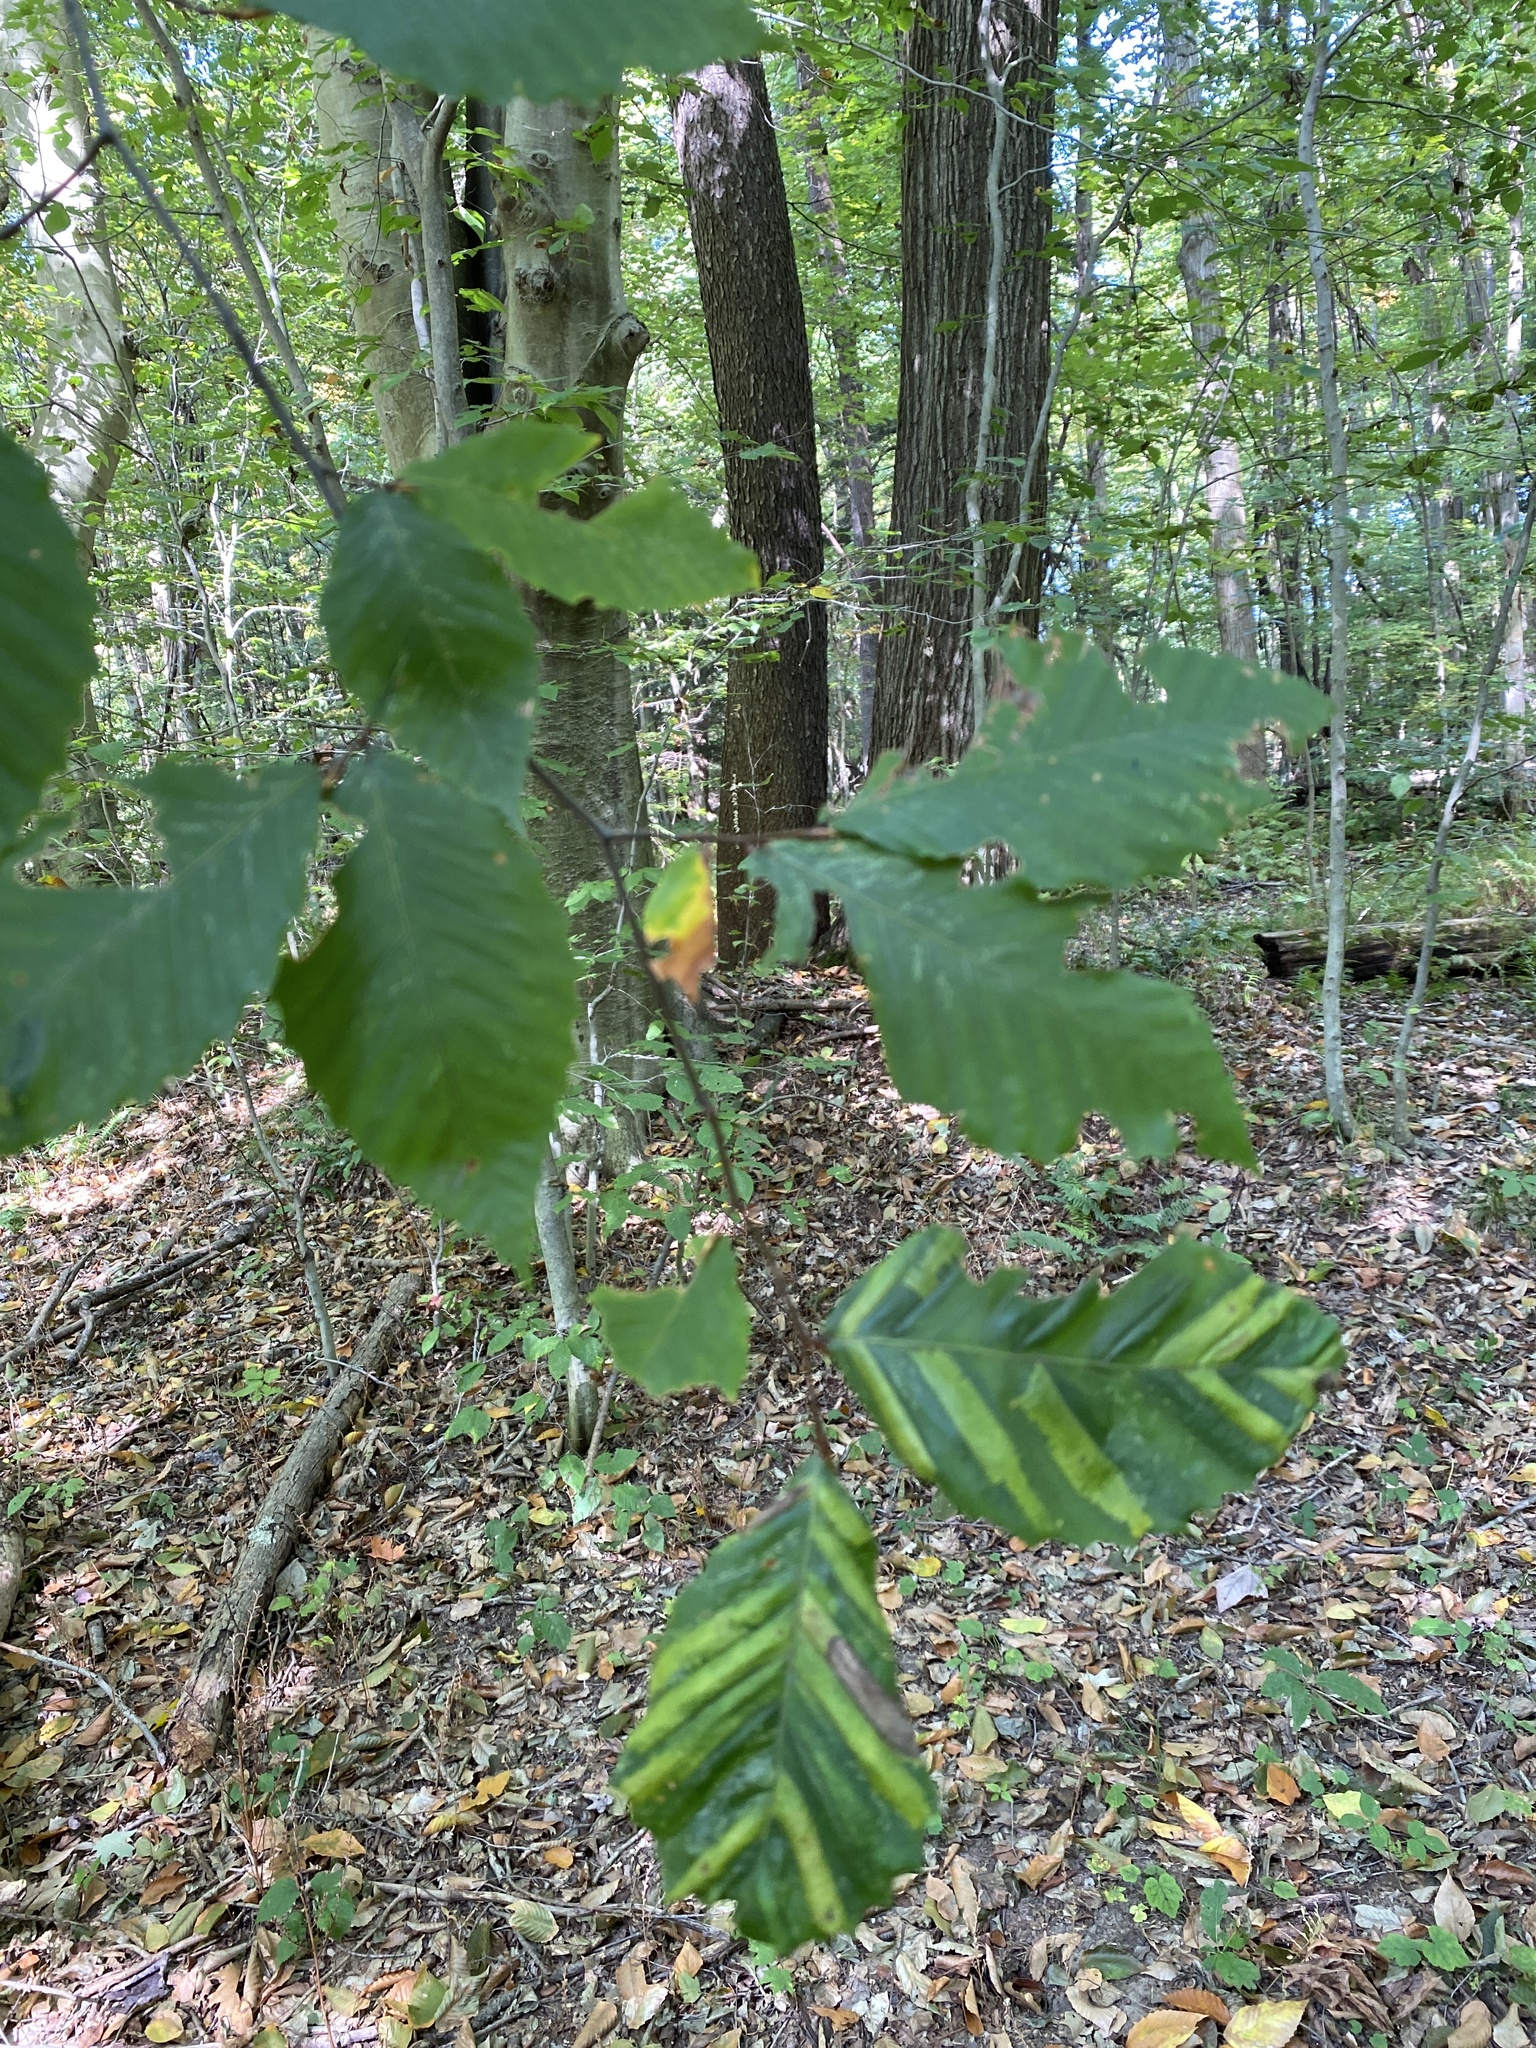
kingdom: Plantae
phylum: Tracheophyta
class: Magnoliopsida
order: Fagales
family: Fagaceae
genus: Fagus
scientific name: Fagus grandifolia
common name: American beech
